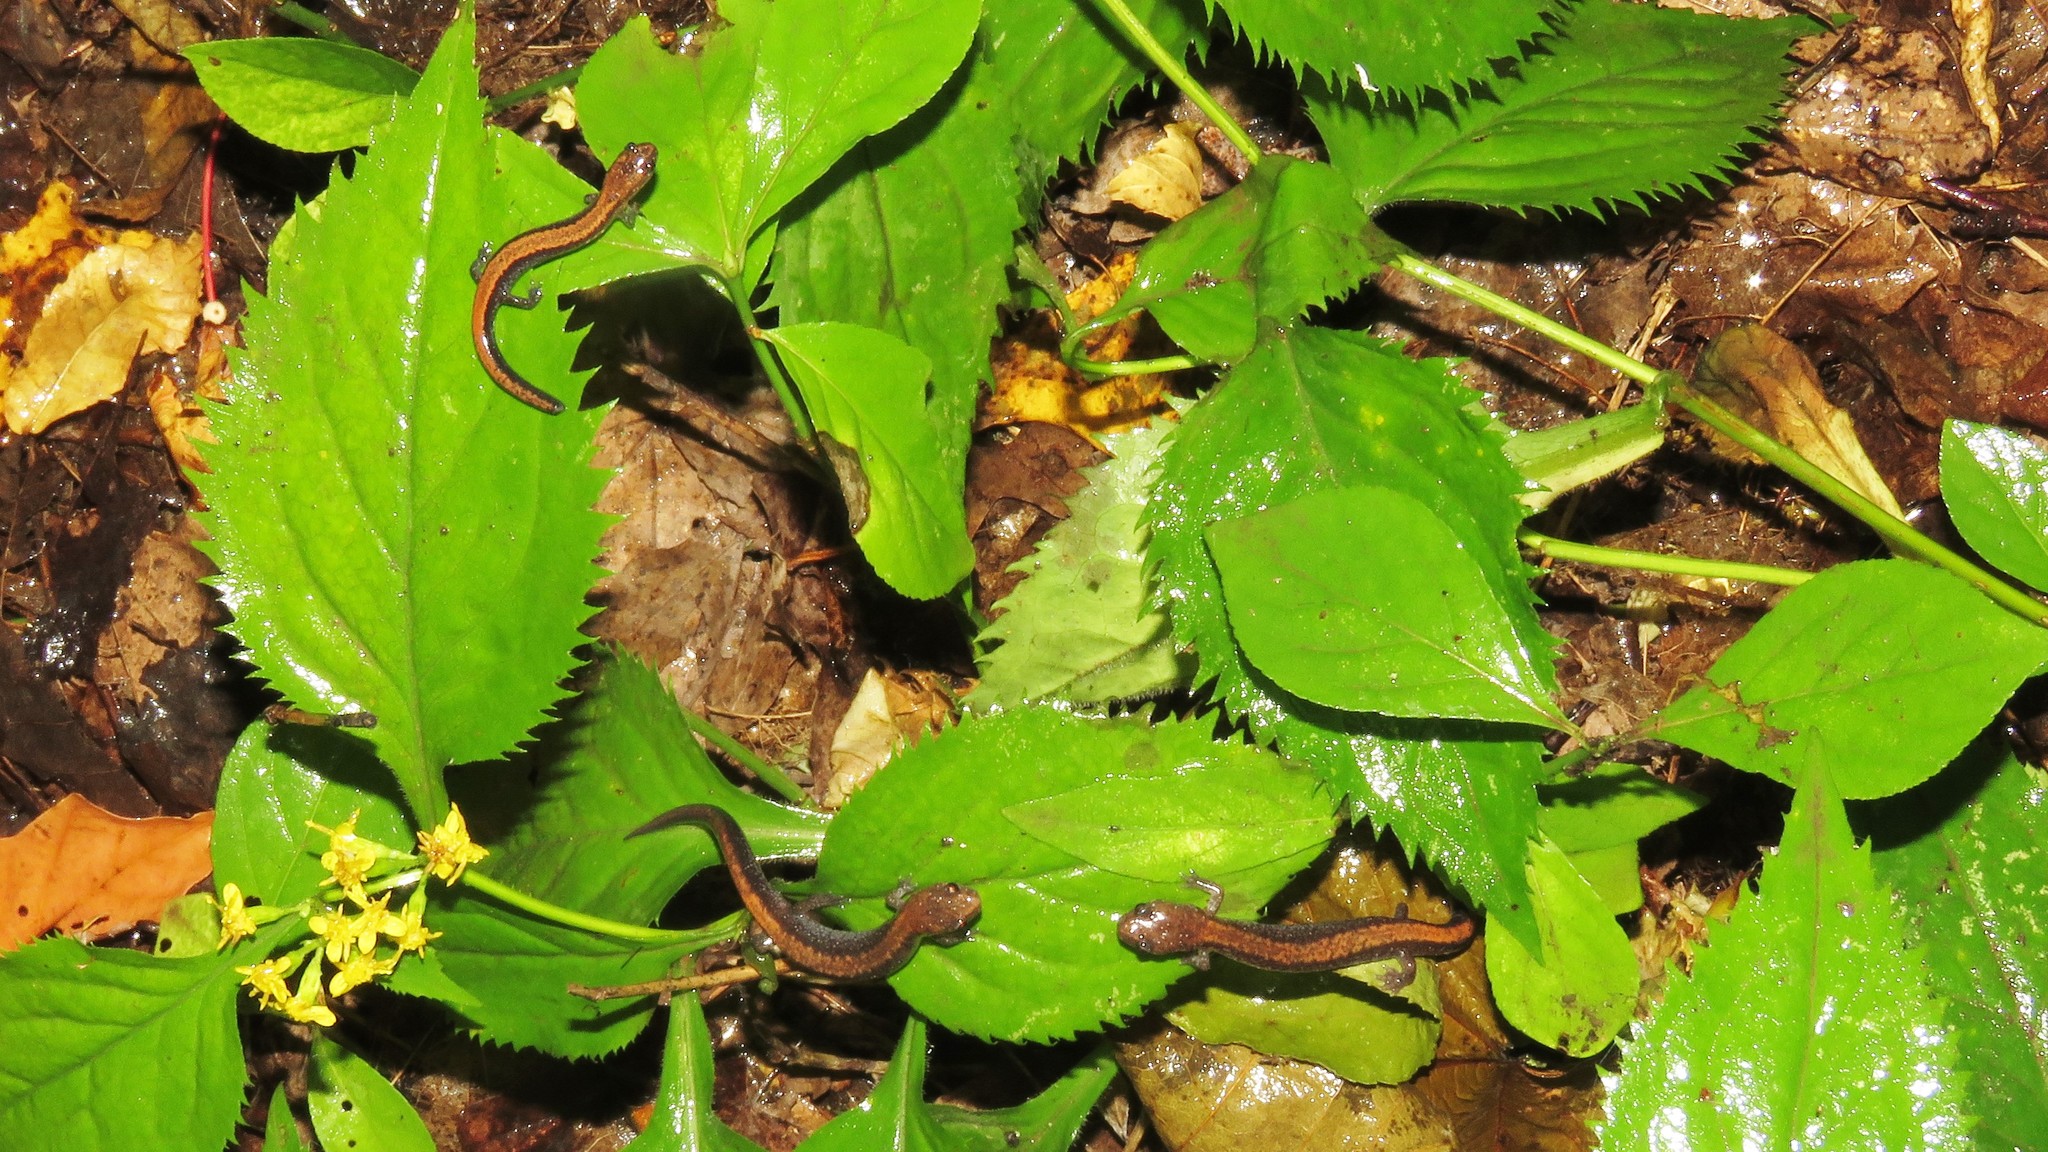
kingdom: Animalia
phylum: Chordata
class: Amphibia
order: Caudata
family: Plethodontidae
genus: Plethodon
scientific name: Plethodon cinereus
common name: Redback salamander
